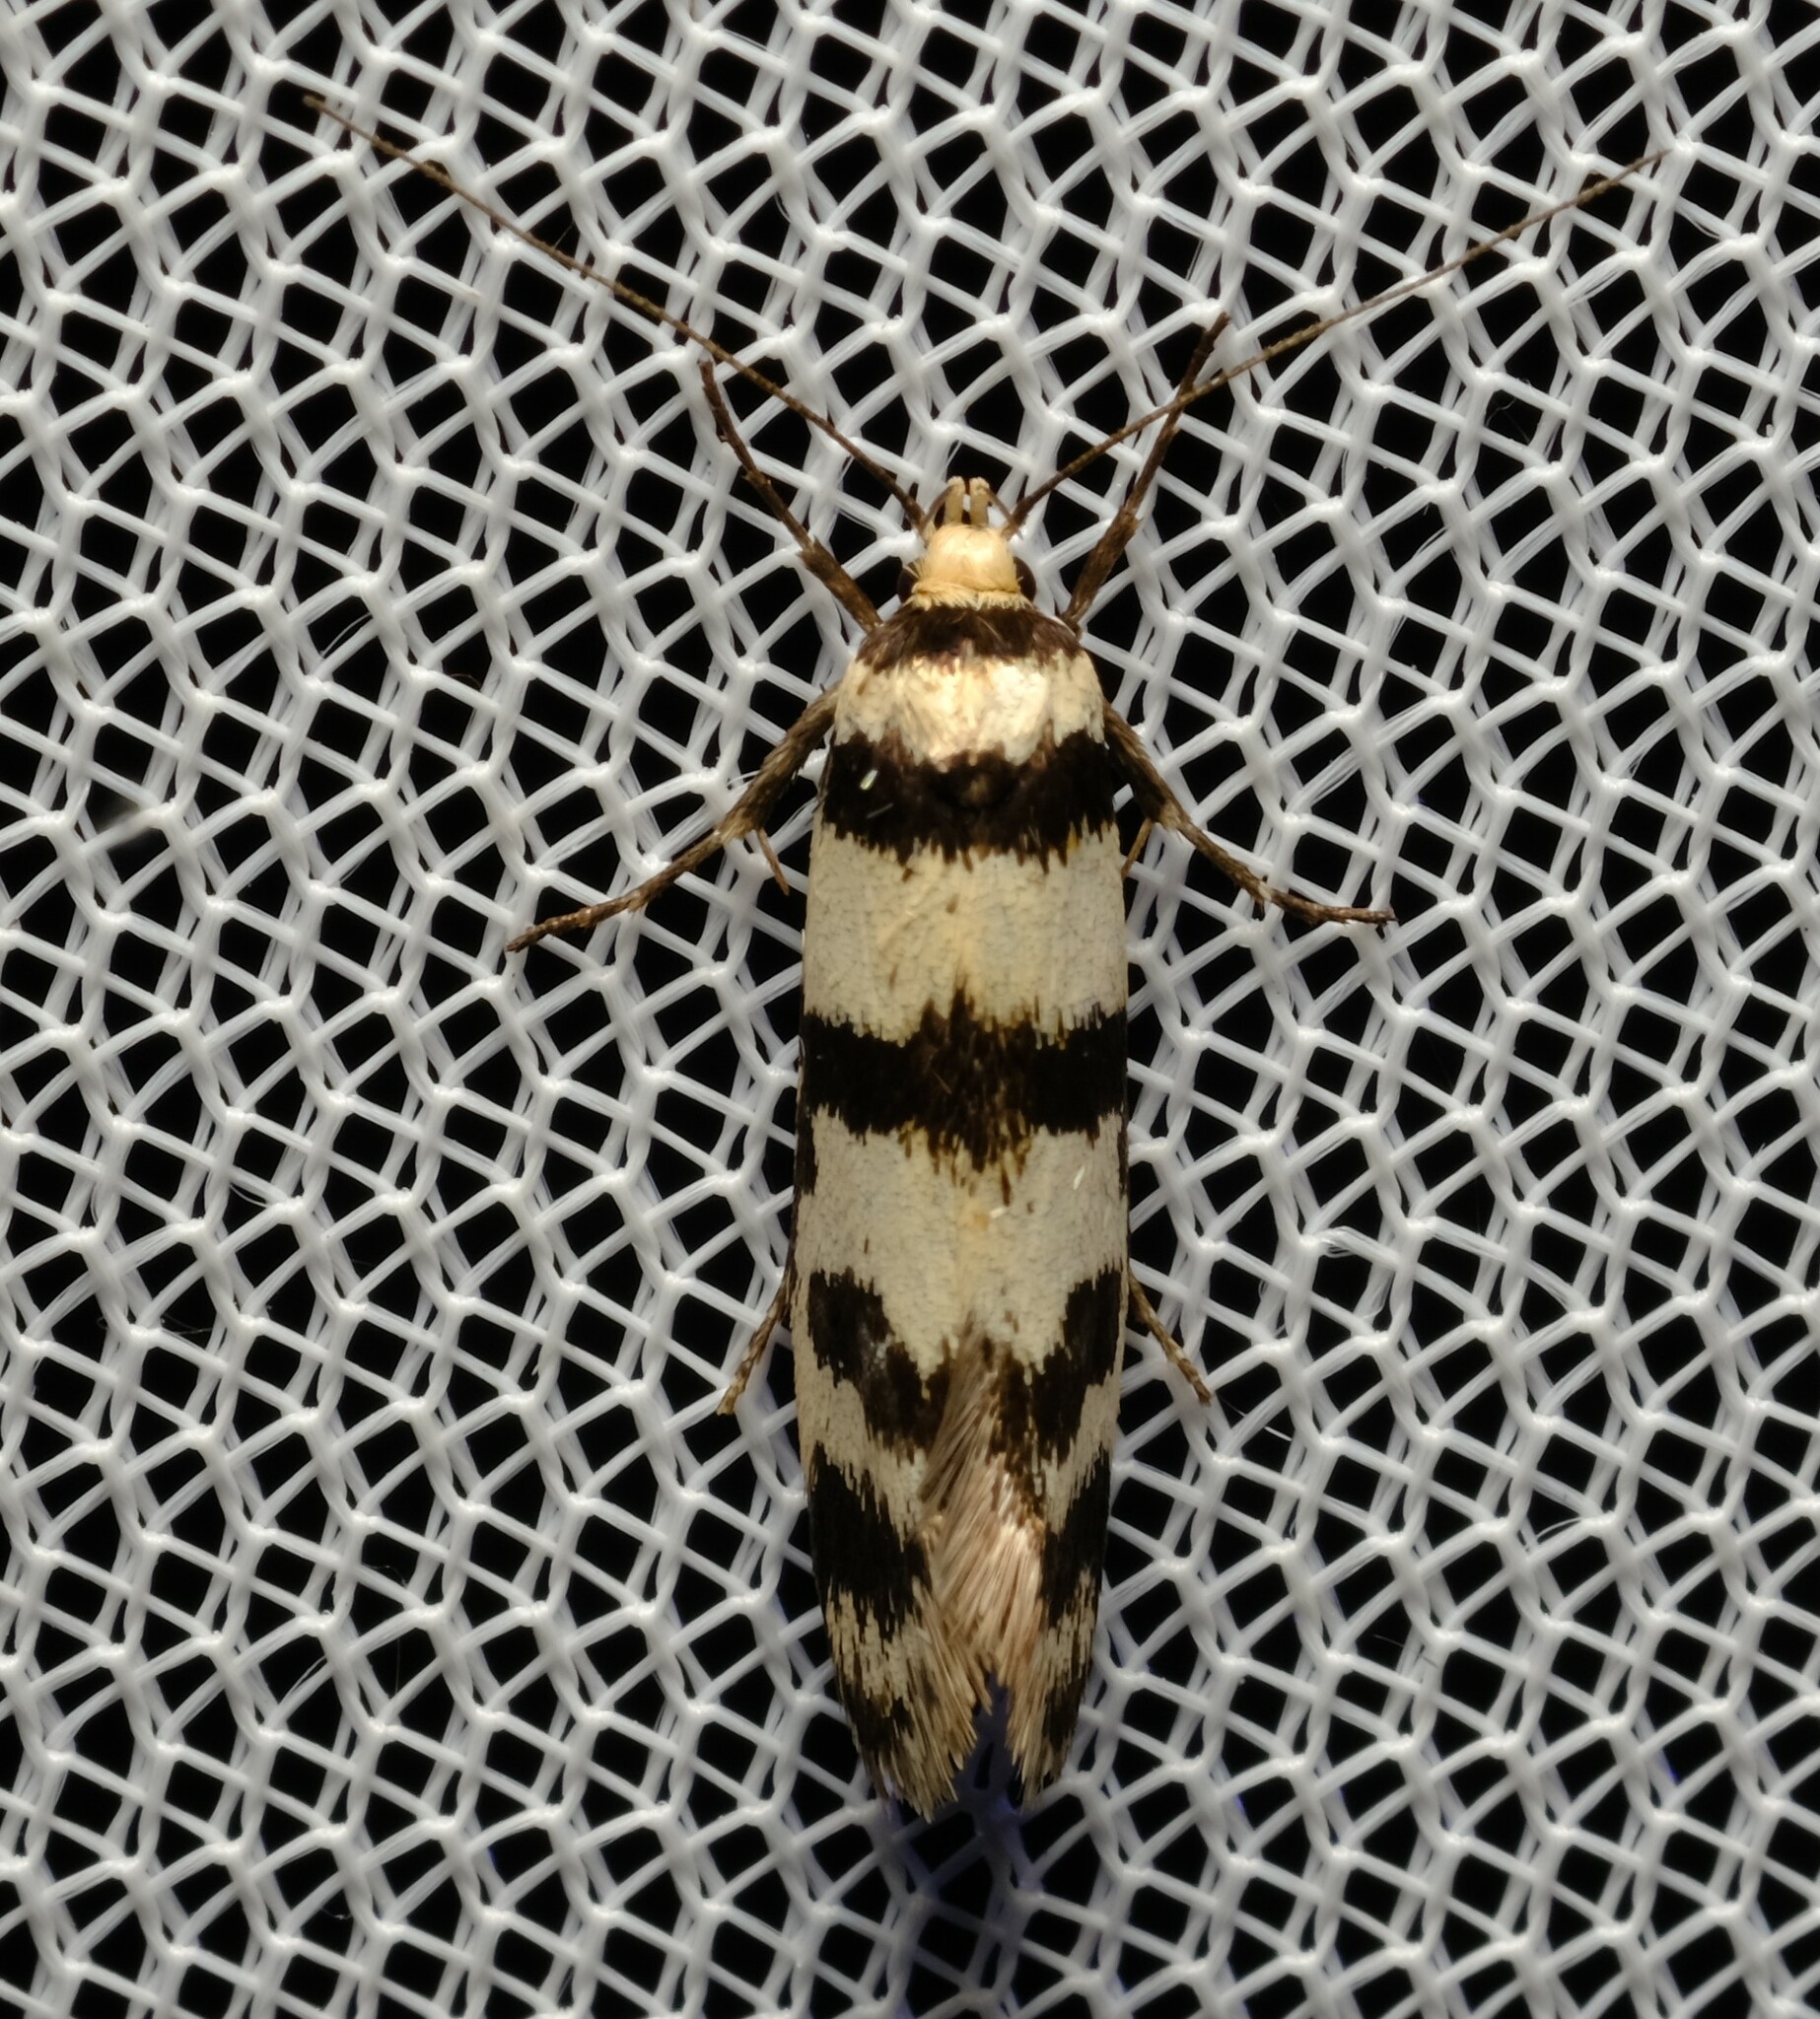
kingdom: Animalia
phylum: Arthropoda
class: Insecta
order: Lepidoptera
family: Oecophoridae
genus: Philobota
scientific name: Philobota impletella
